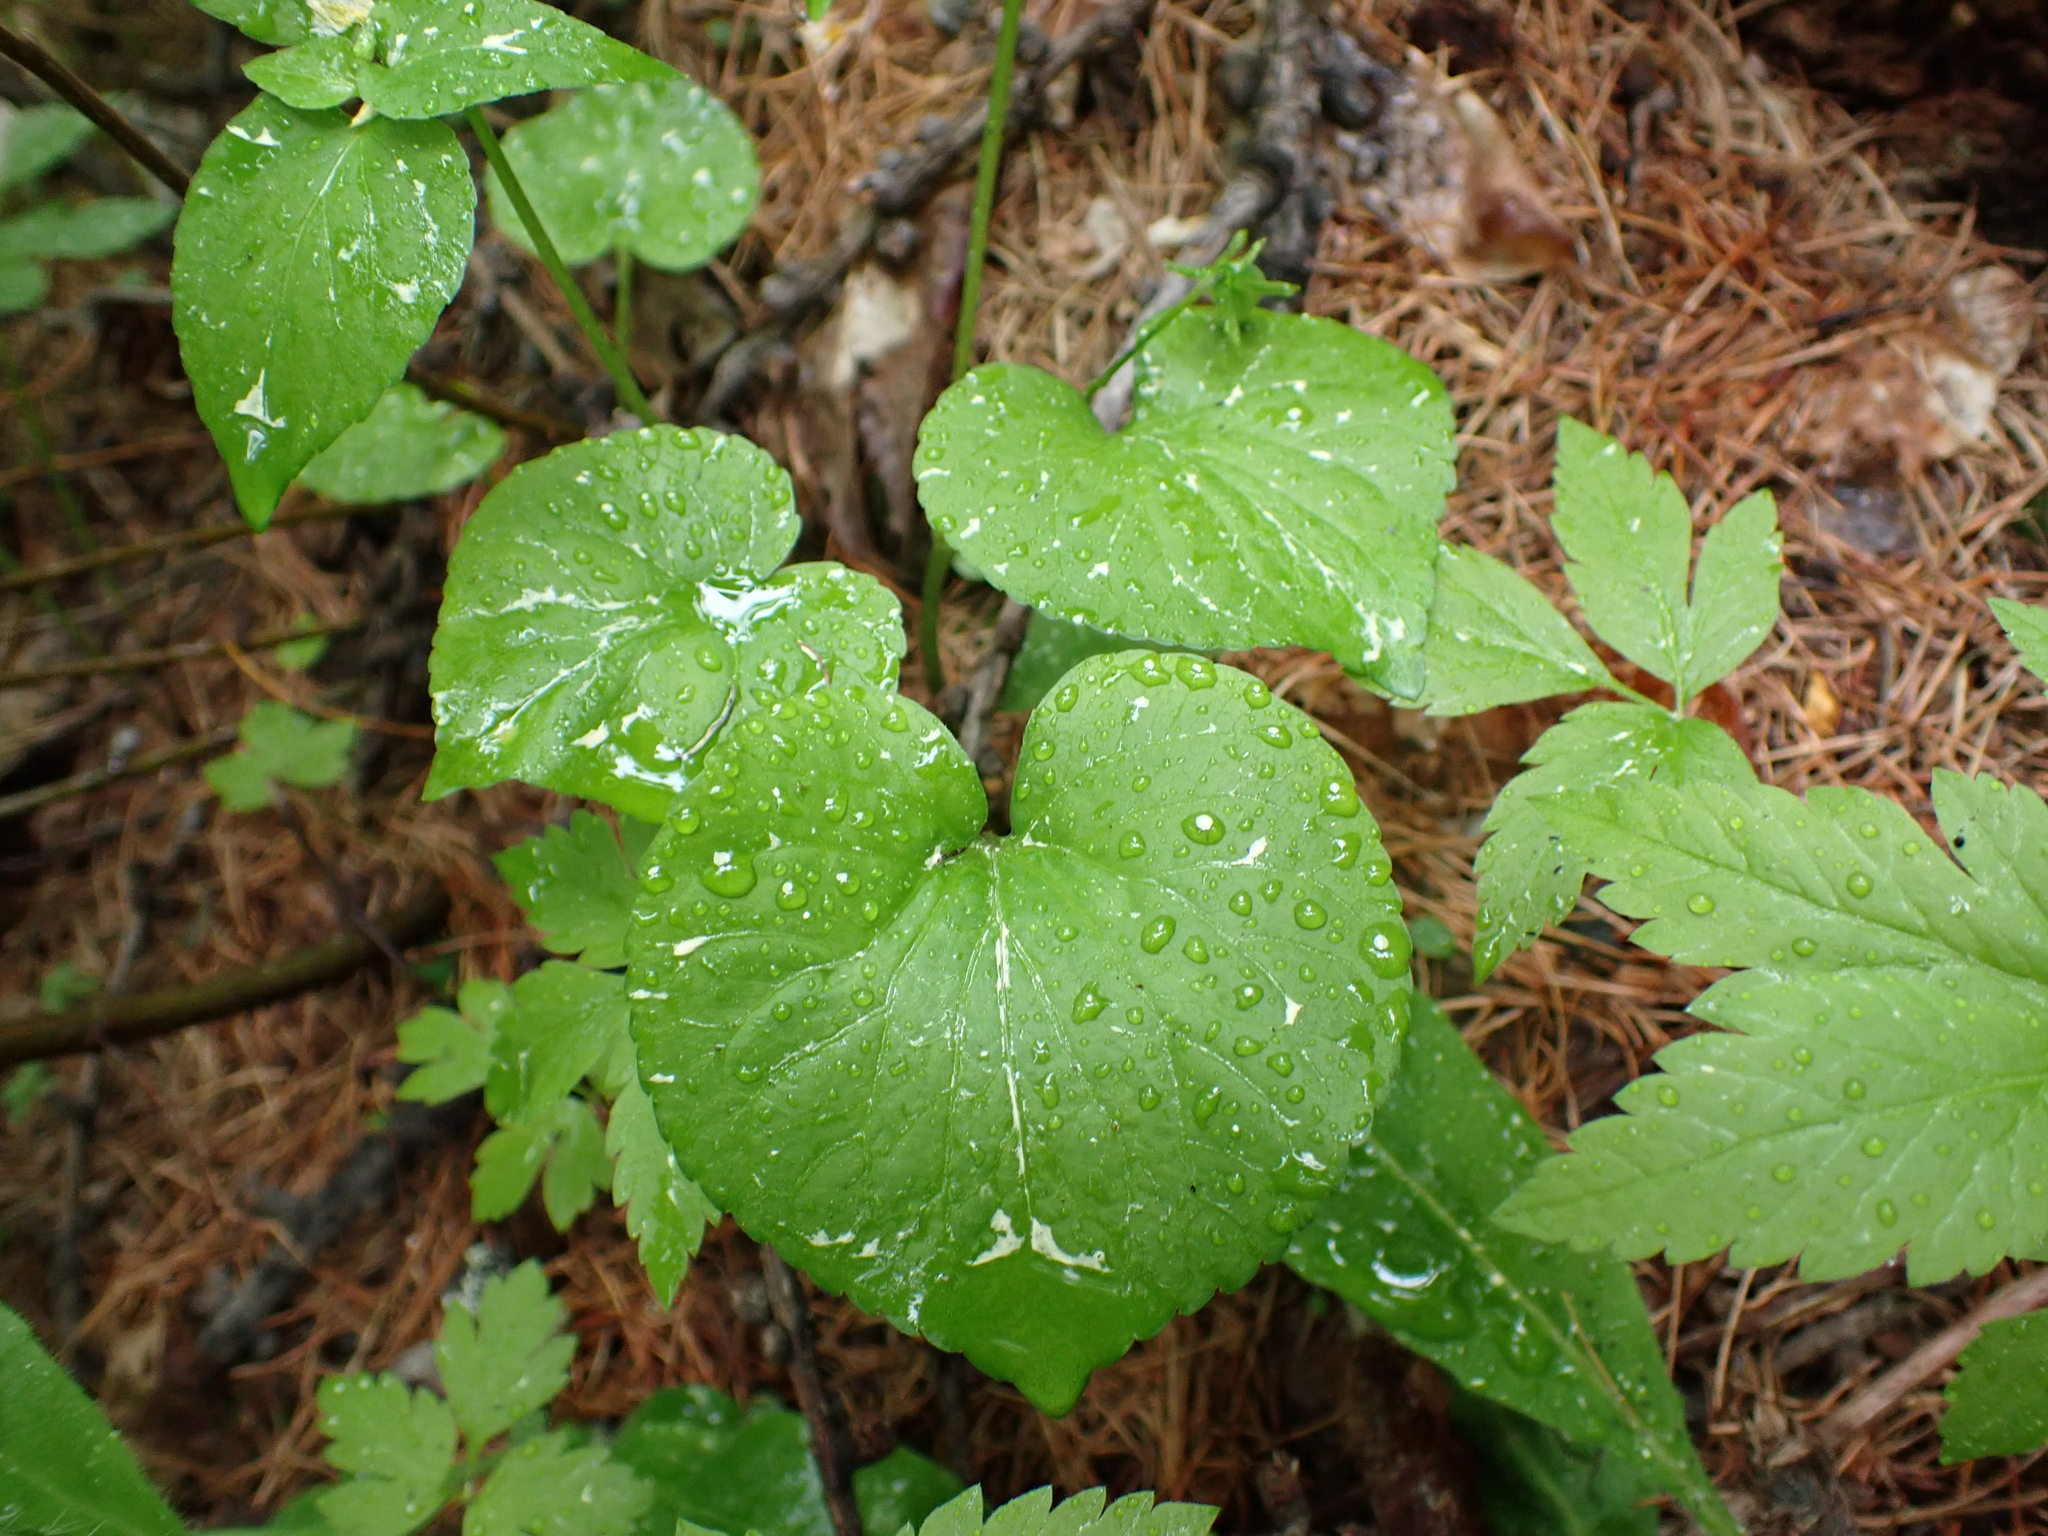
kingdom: Plantae
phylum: Tracheophyta
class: Magnoliopsida
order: Malpighiales
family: Violaceae
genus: Viola
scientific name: Viola canadensis
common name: Canada violet
